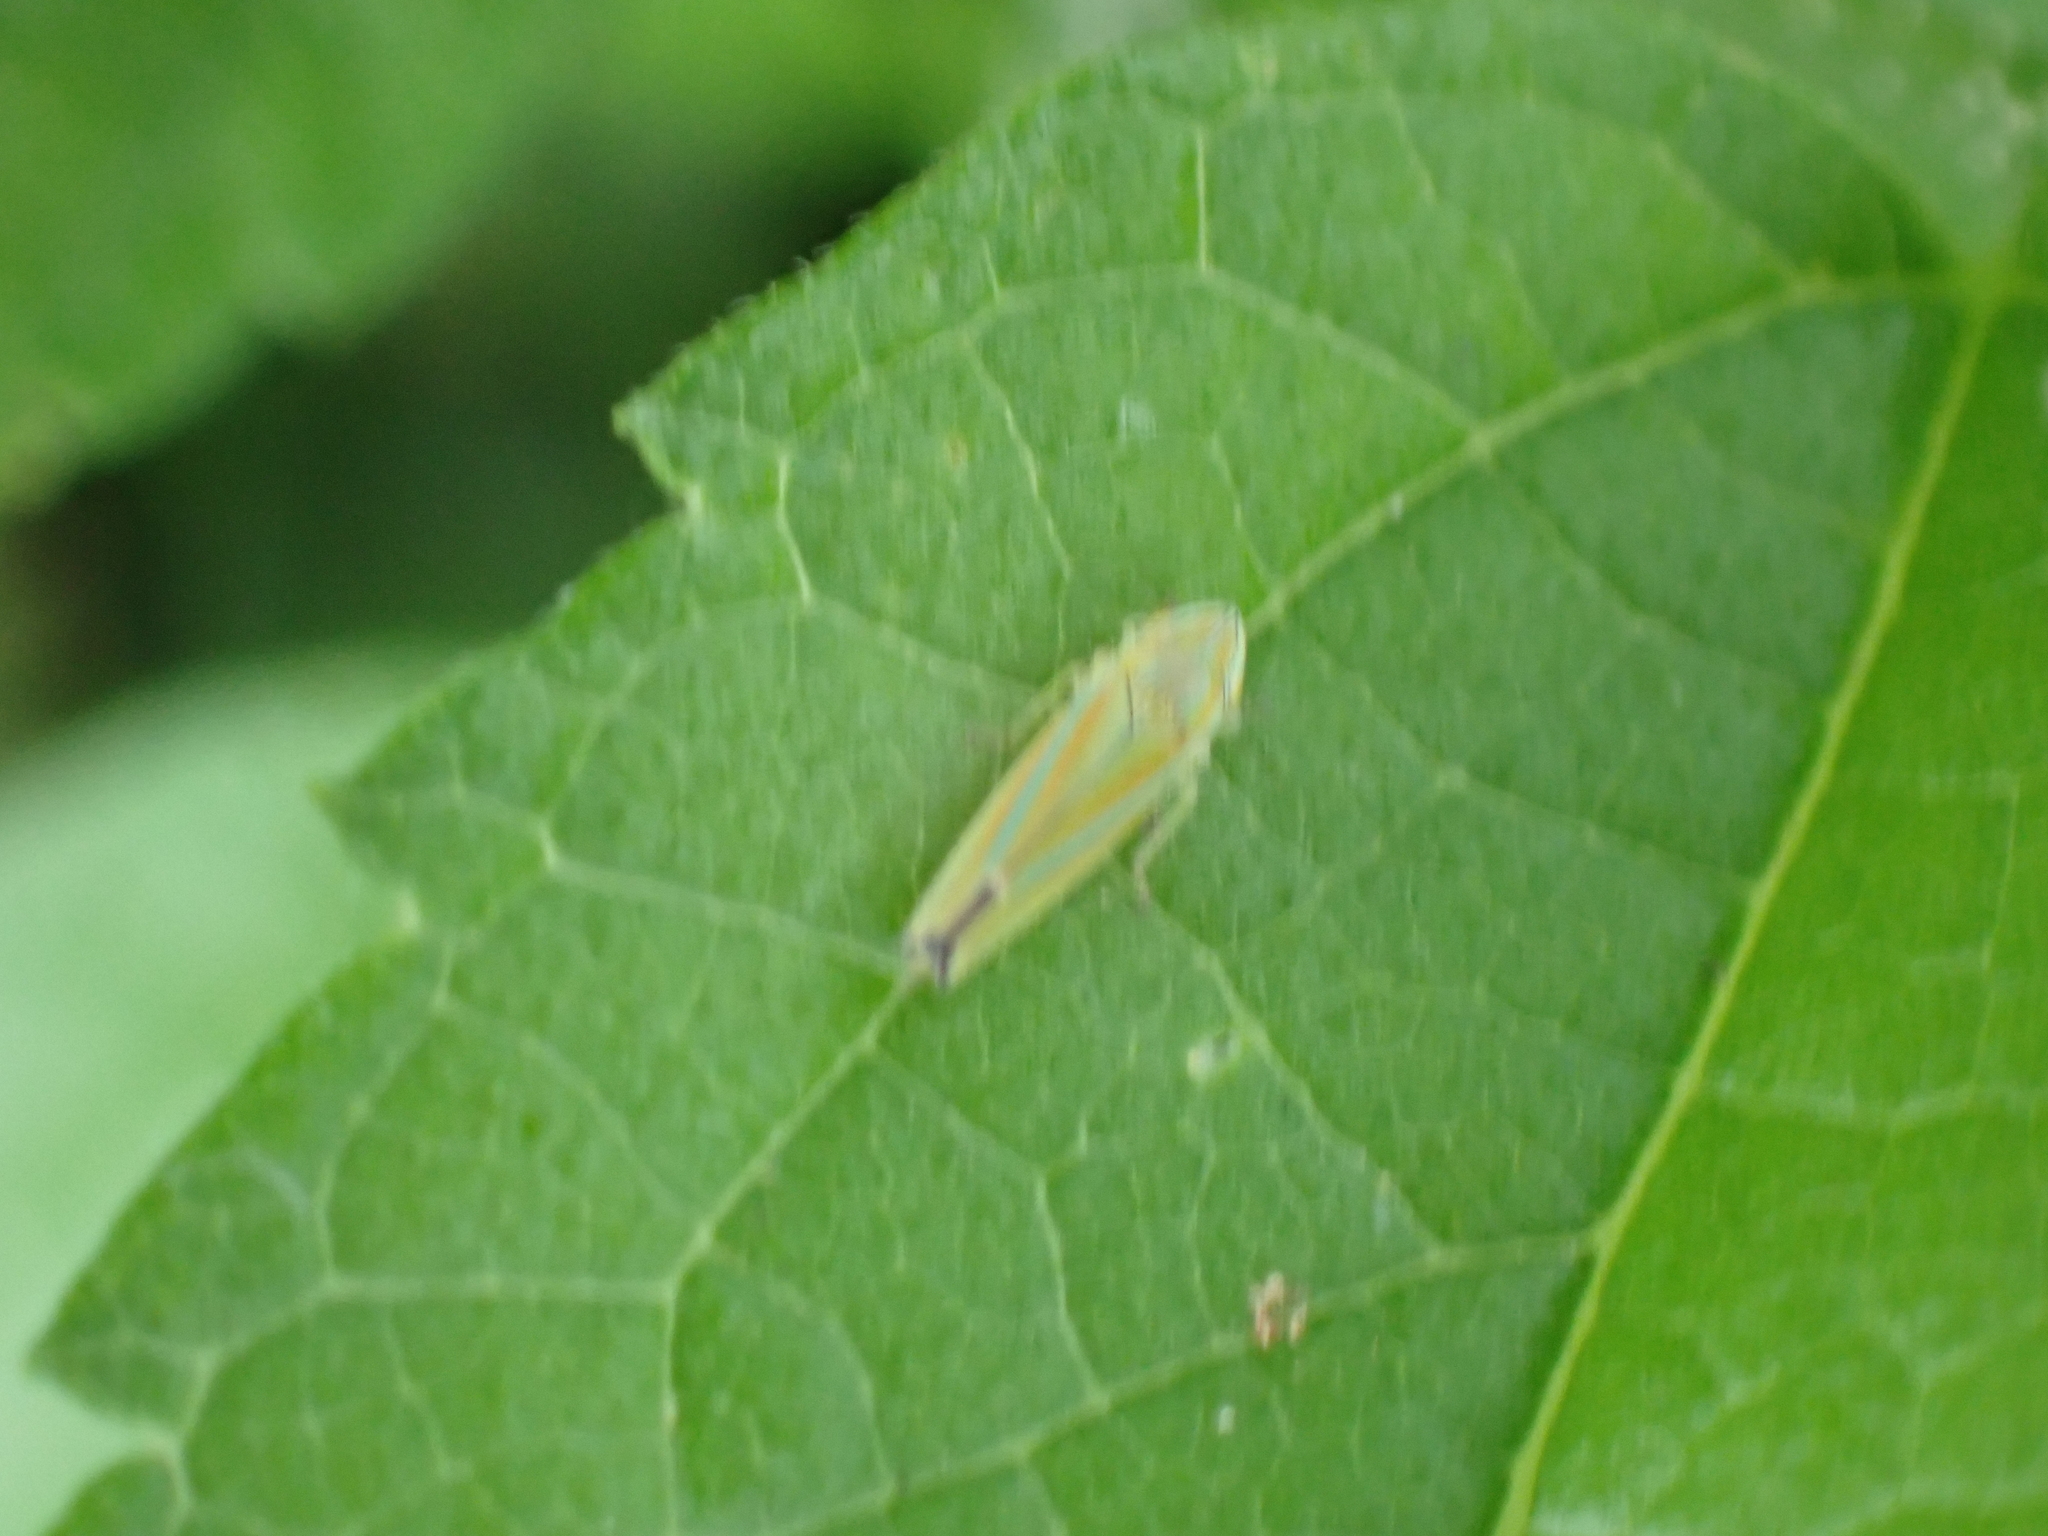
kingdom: Animalia
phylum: Arthropoda
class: Insecta
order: Hemiptera
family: Cicadellidae
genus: Graphocephala
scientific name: Graphocephala versuta
